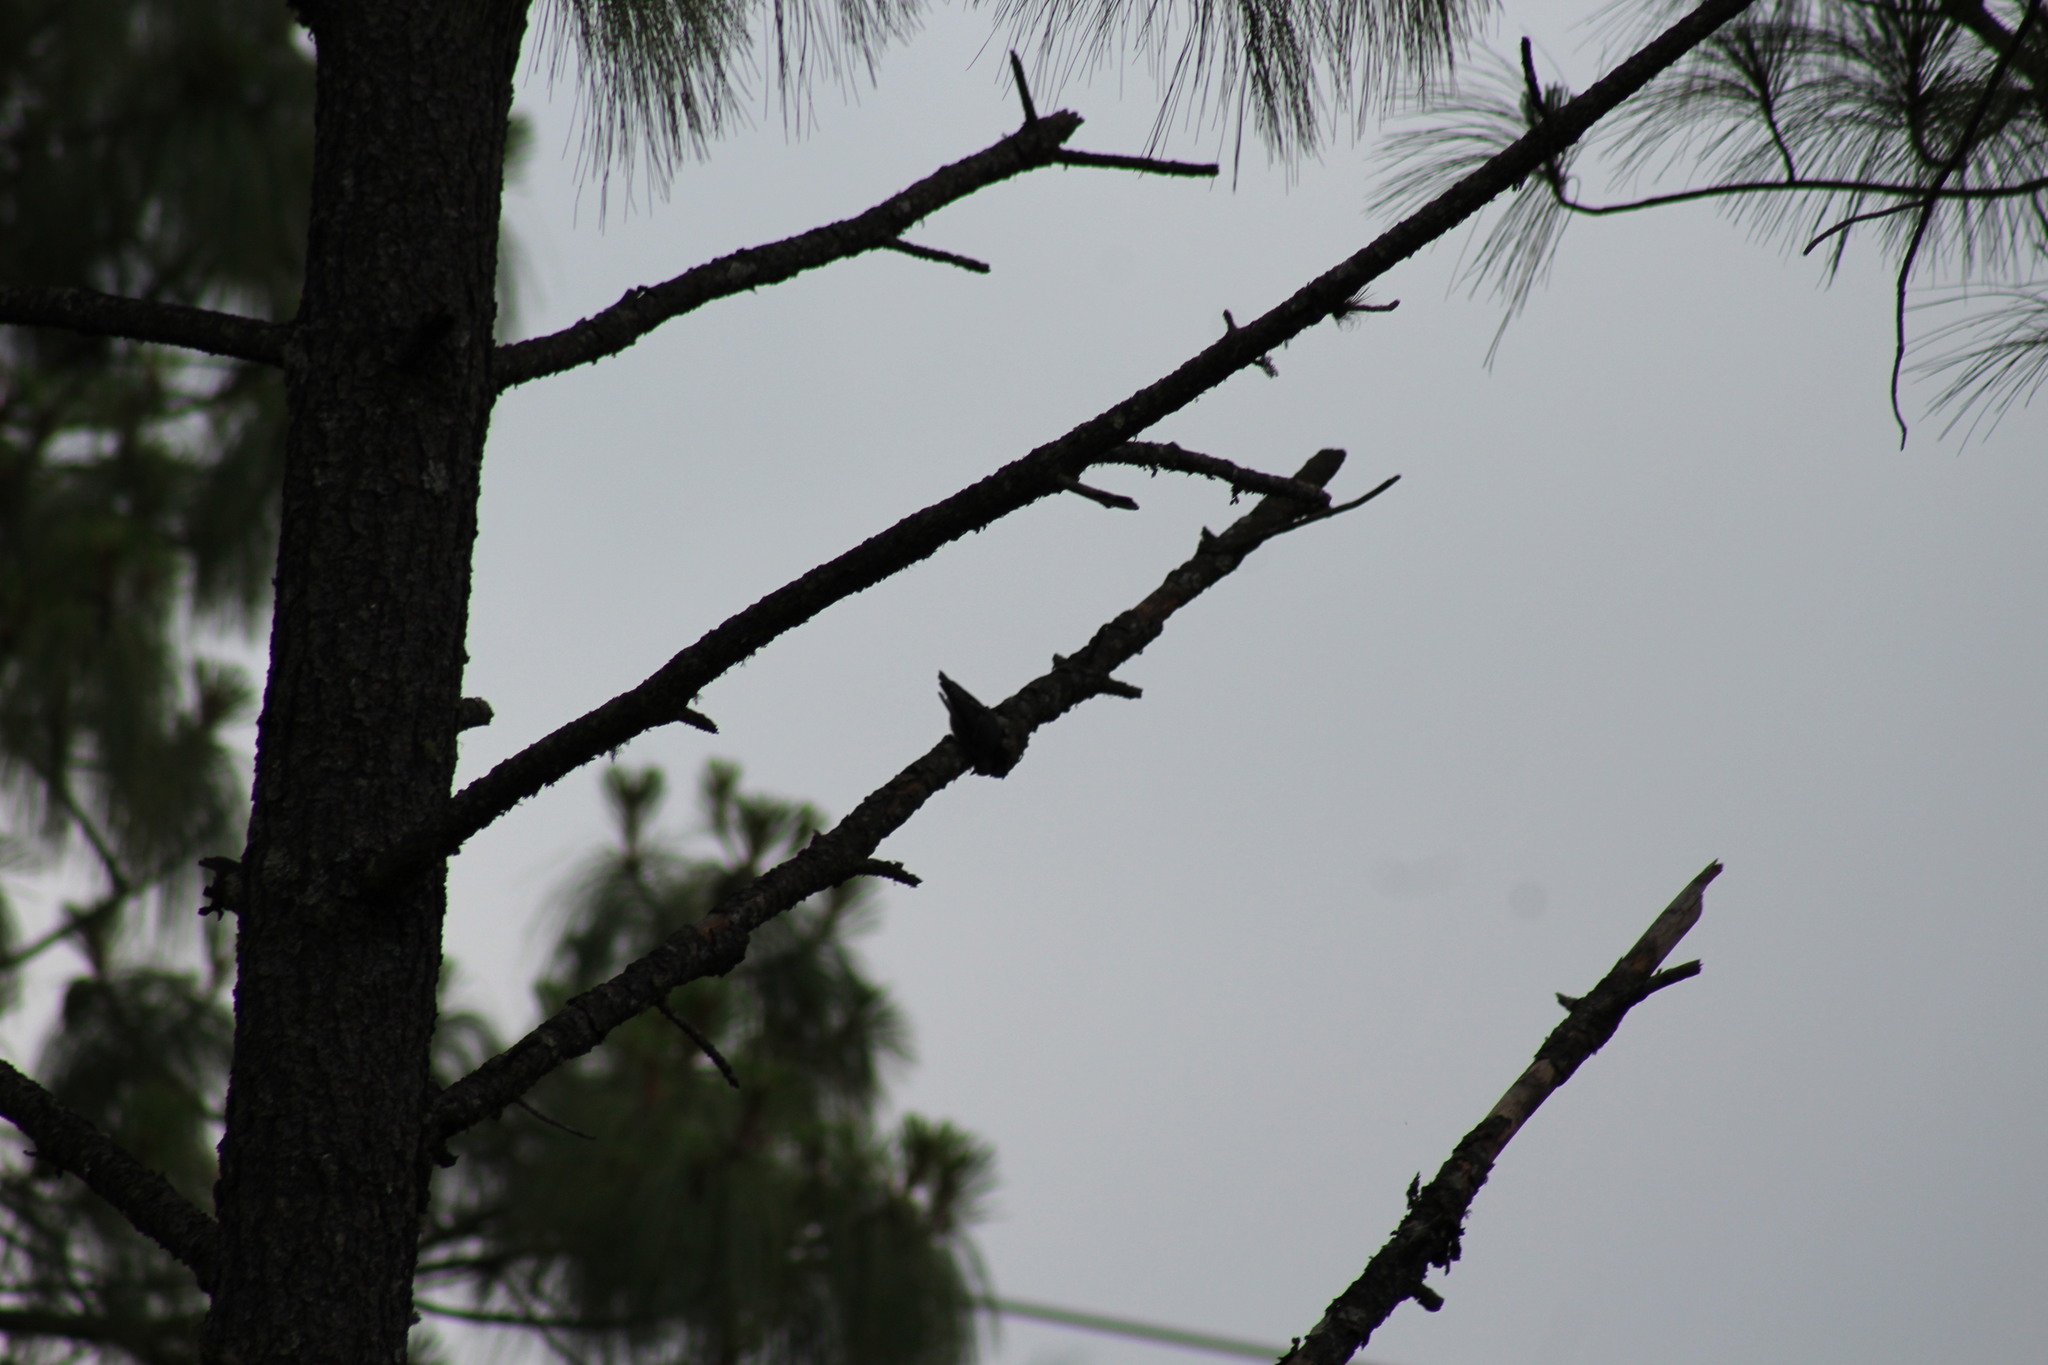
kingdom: Animalia
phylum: Chordata
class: Aves
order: Passeriformes
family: Sittidae
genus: Sitta
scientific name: Sitta carolinensis
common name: White-breasted nuthatch
